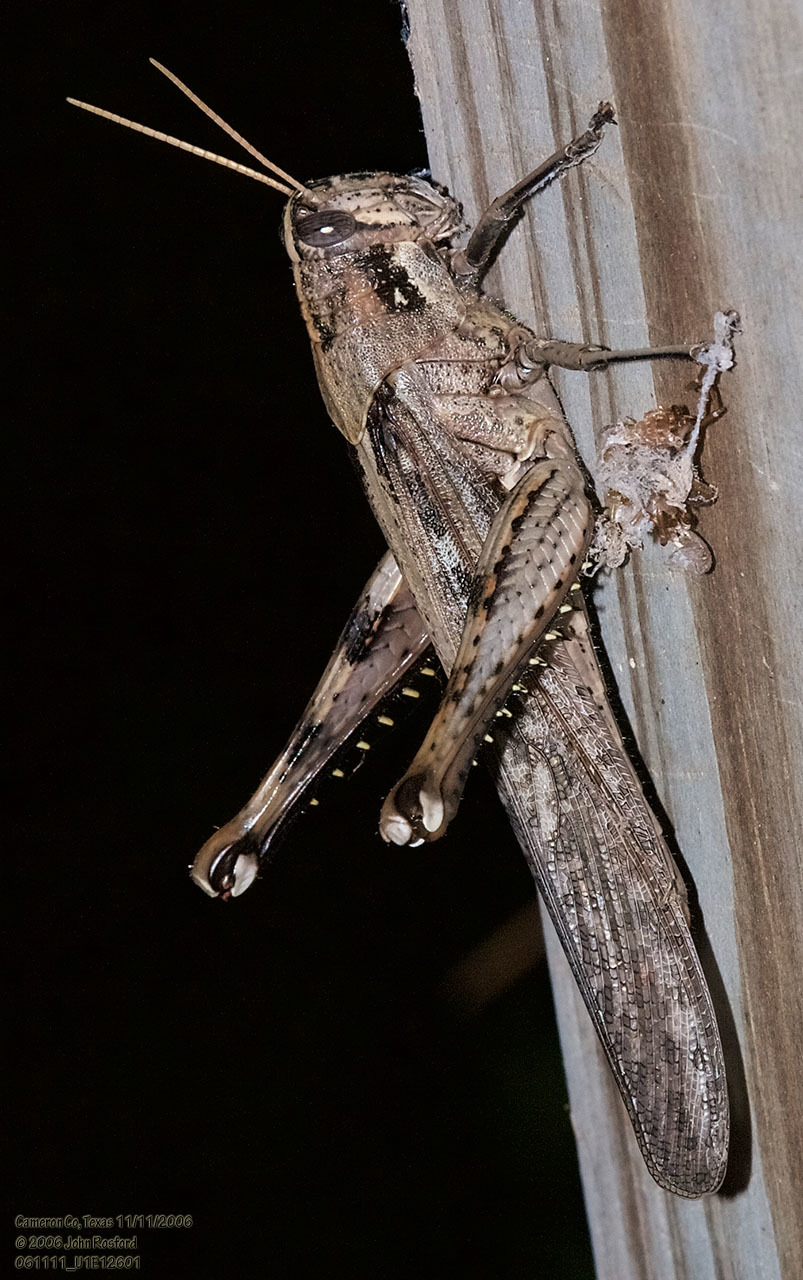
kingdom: Animalia
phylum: Arthropoda
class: Insecta
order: Orthoptera
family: Acrididae
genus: Schistocerca
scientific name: Schistocerca nitens
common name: Vagrant grasshopper
